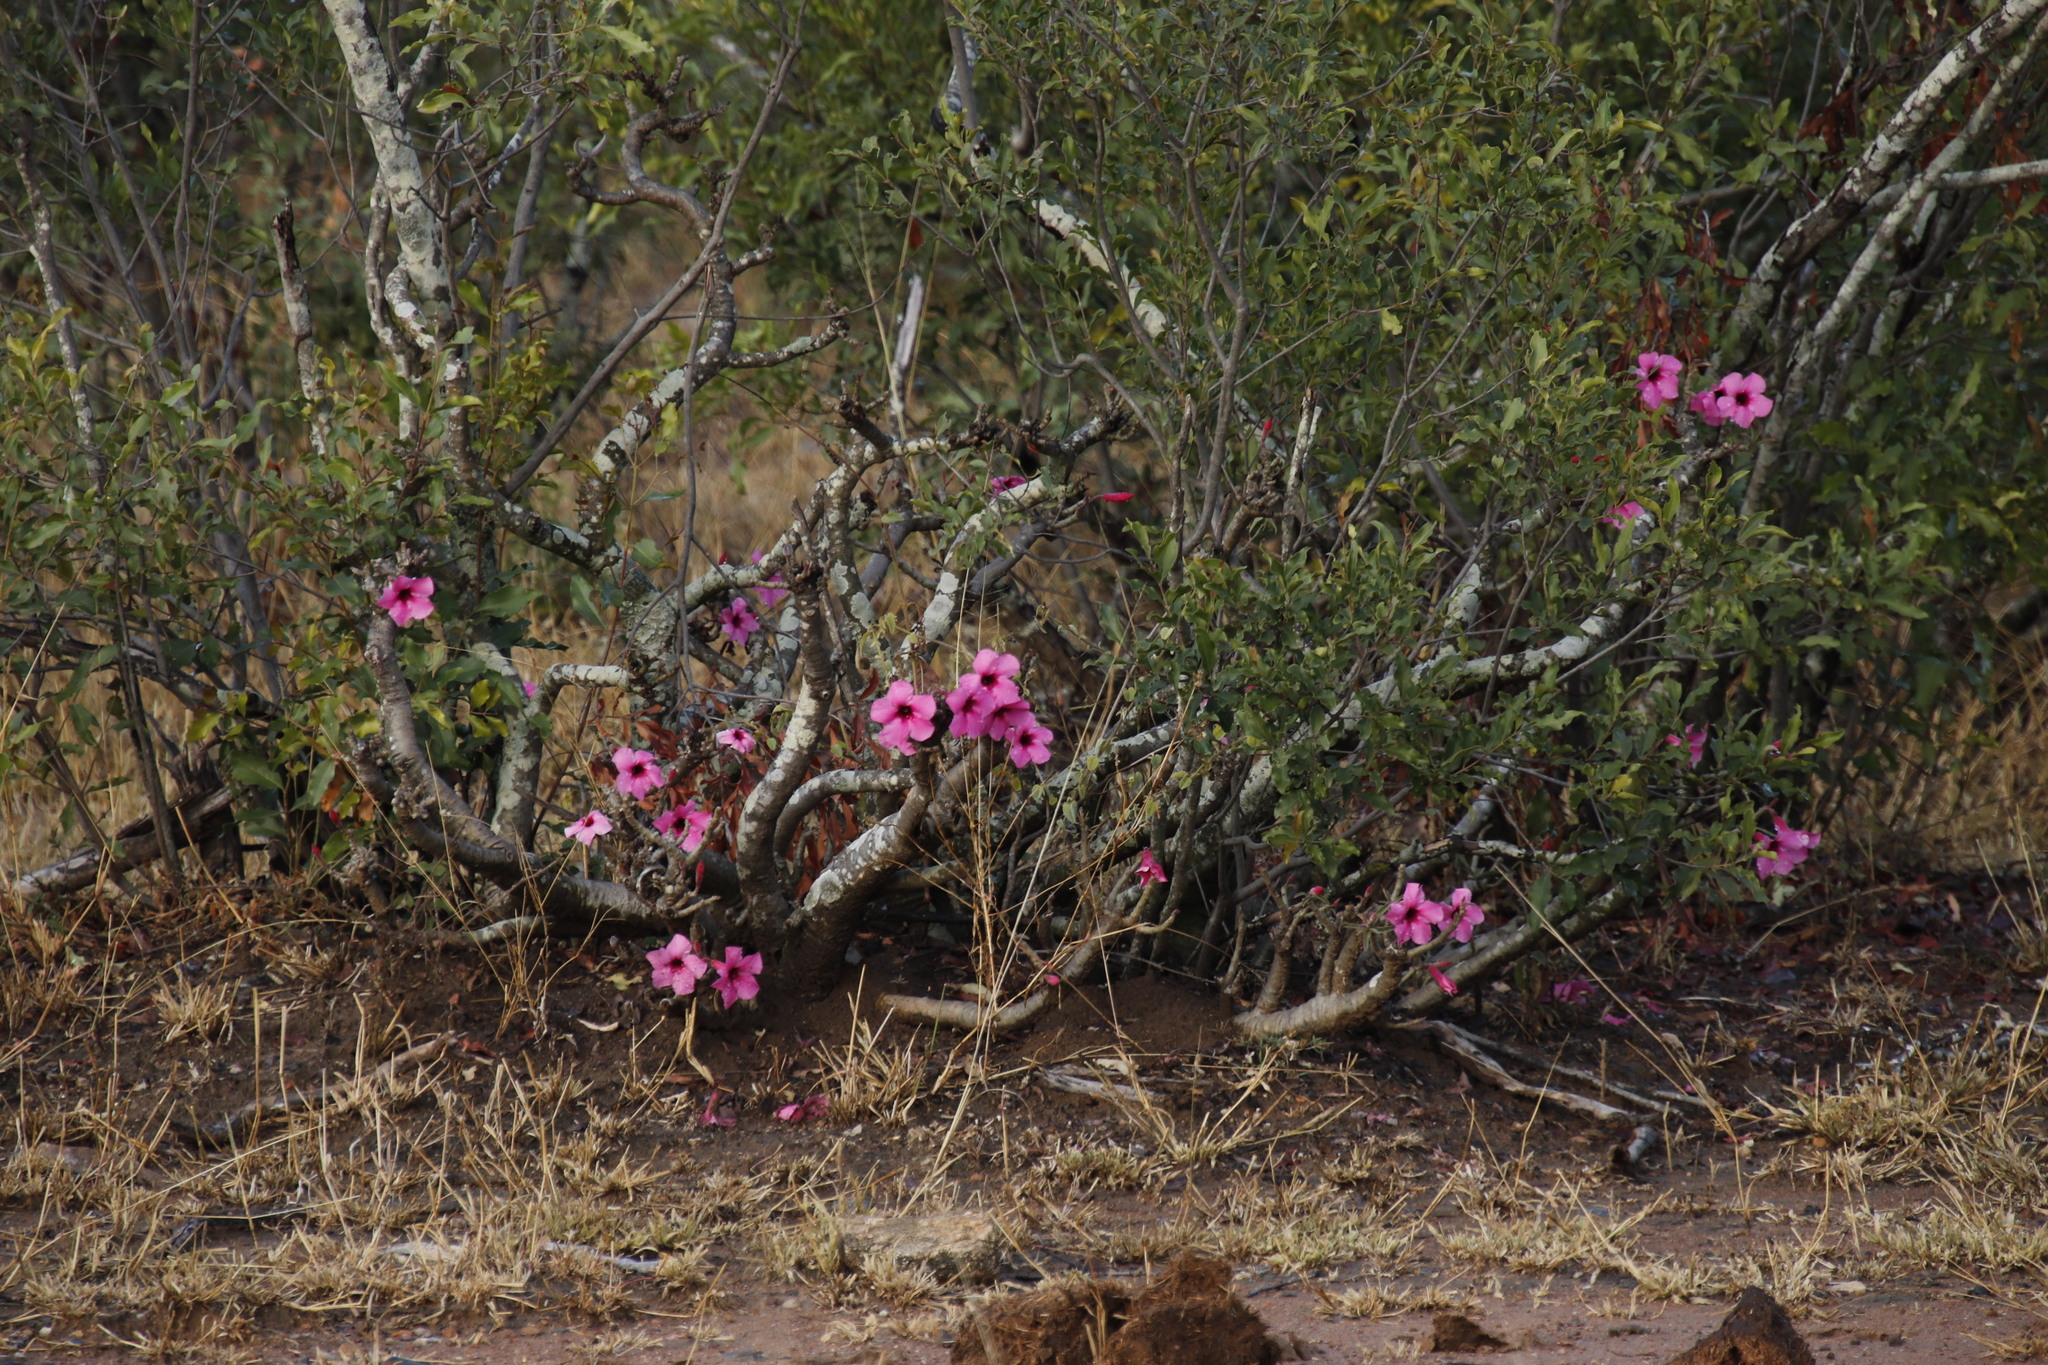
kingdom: Plantae
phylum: Tracheophyta
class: Magnoliopsida
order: Gentianales
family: Apocynaceae
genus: Adenium
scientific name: Adenium obesum
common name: Desert-rose
